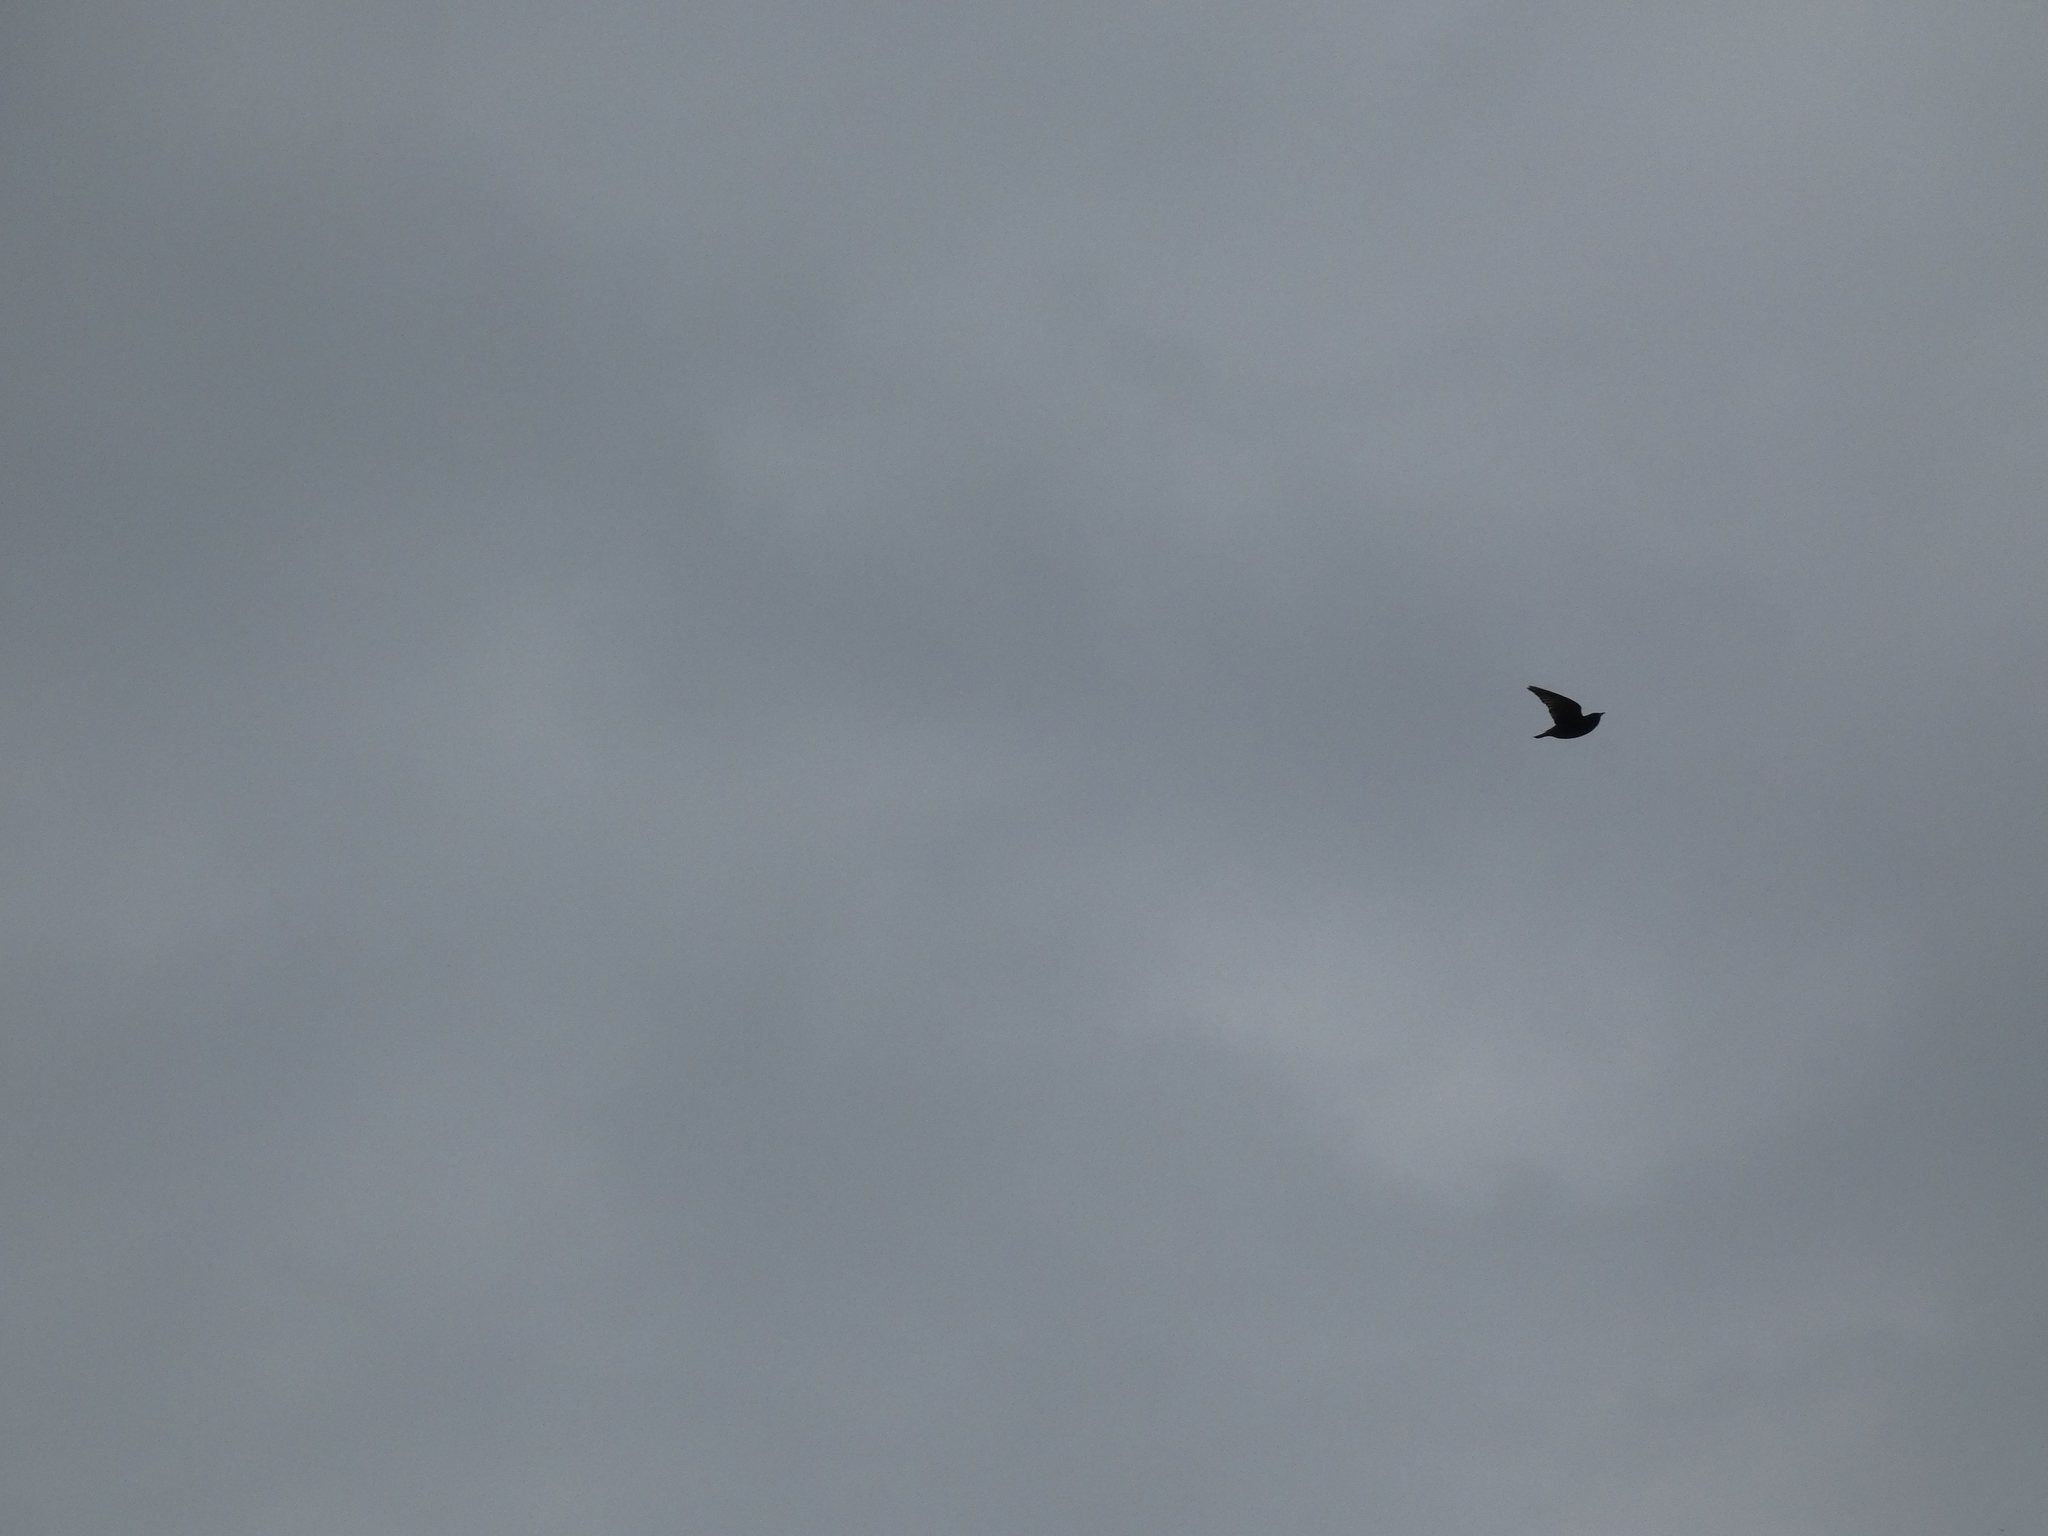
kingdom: Animalia
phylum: Chordata
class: Aves
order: Passeriformes
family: Sturnidae
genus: Sturnus
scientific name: Sturnus vulgaris
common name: Common starling
